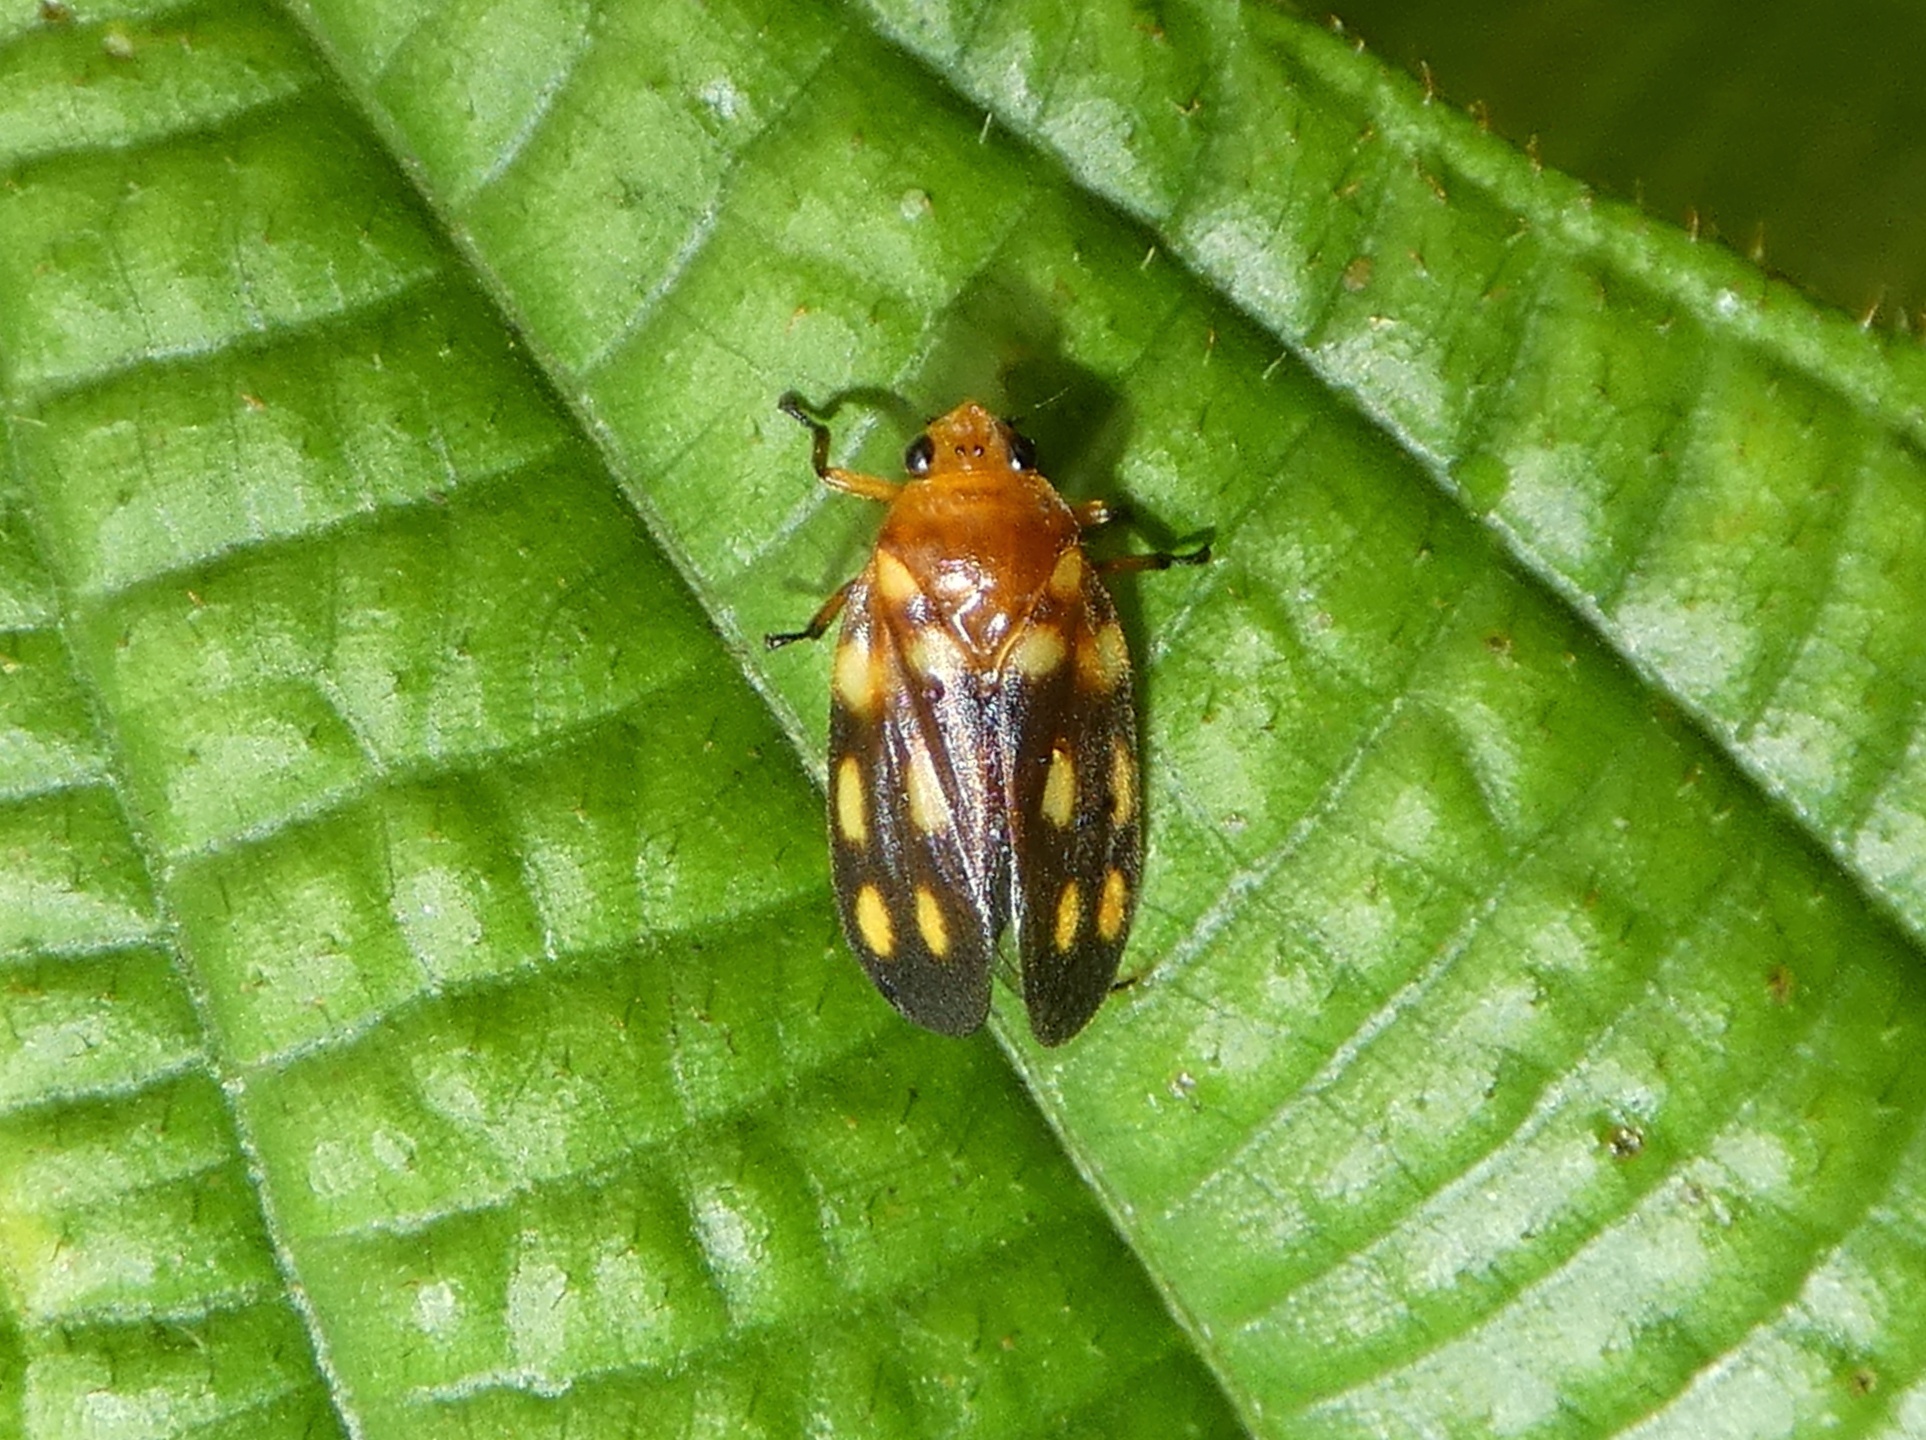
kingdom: Animalia
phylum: Arthropoda
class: Insecta
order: Hemiptera
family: Cercopidae
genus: Ocoaxo
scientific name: Ocoaxo septemnotatus
